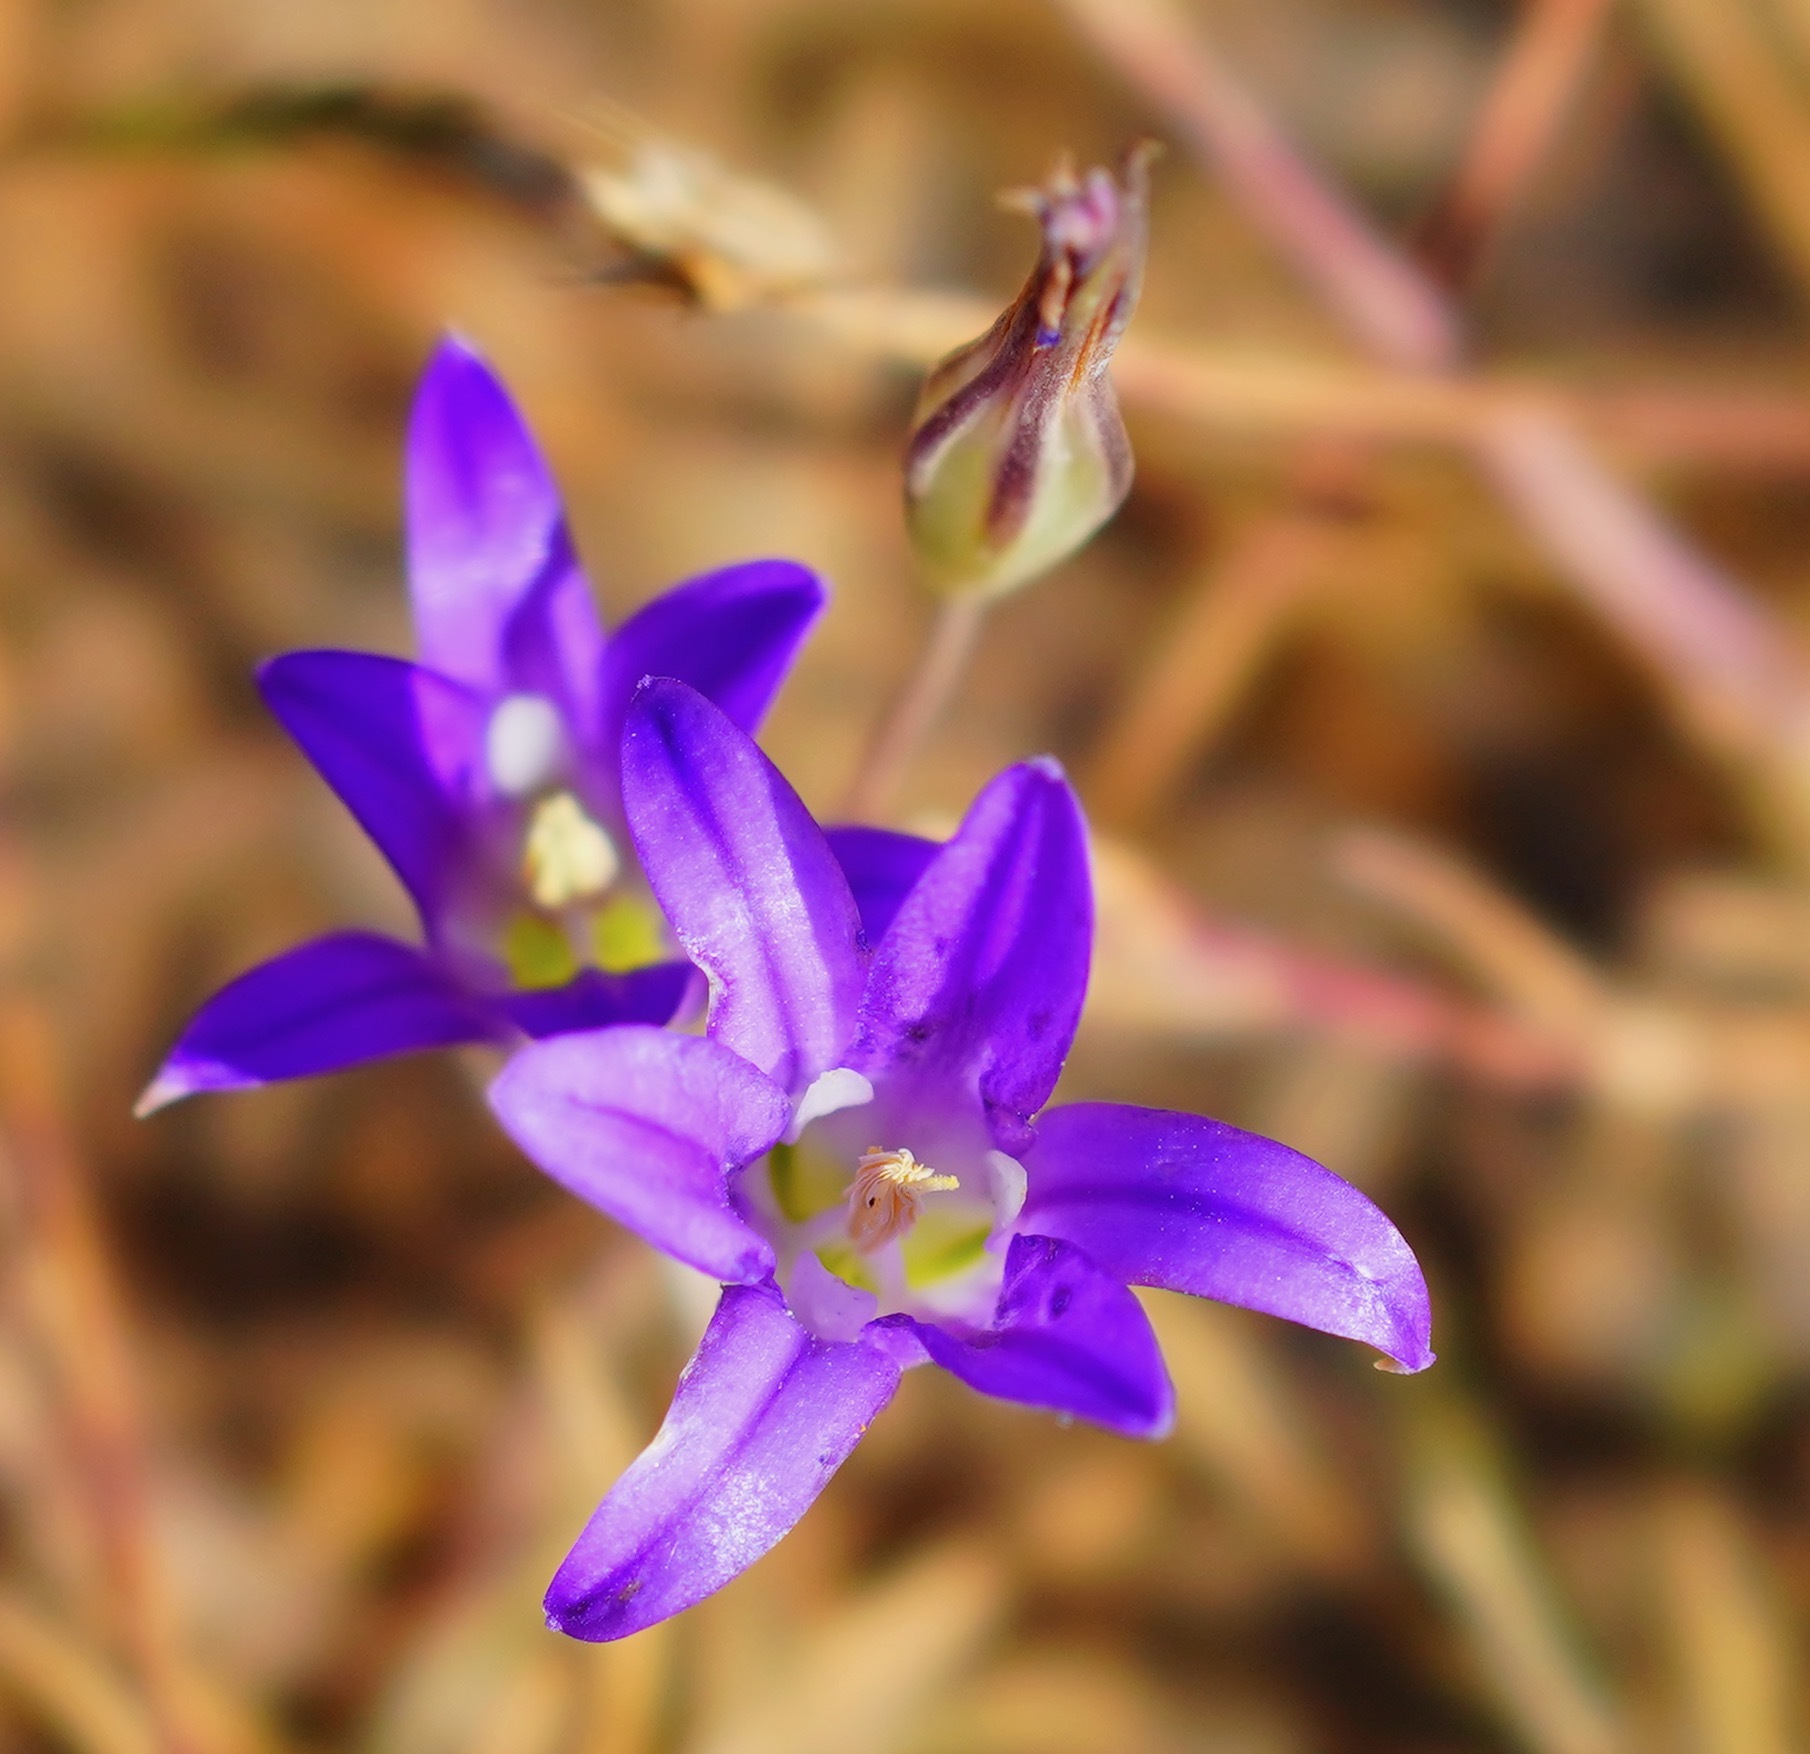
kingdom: Plantae
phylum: Tracheophyta
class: Liliopsida
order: Asparagales
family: Asparagaceae
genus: Brodiaea
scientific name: Brodiaea elegans
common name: Elegant cluster-lily
